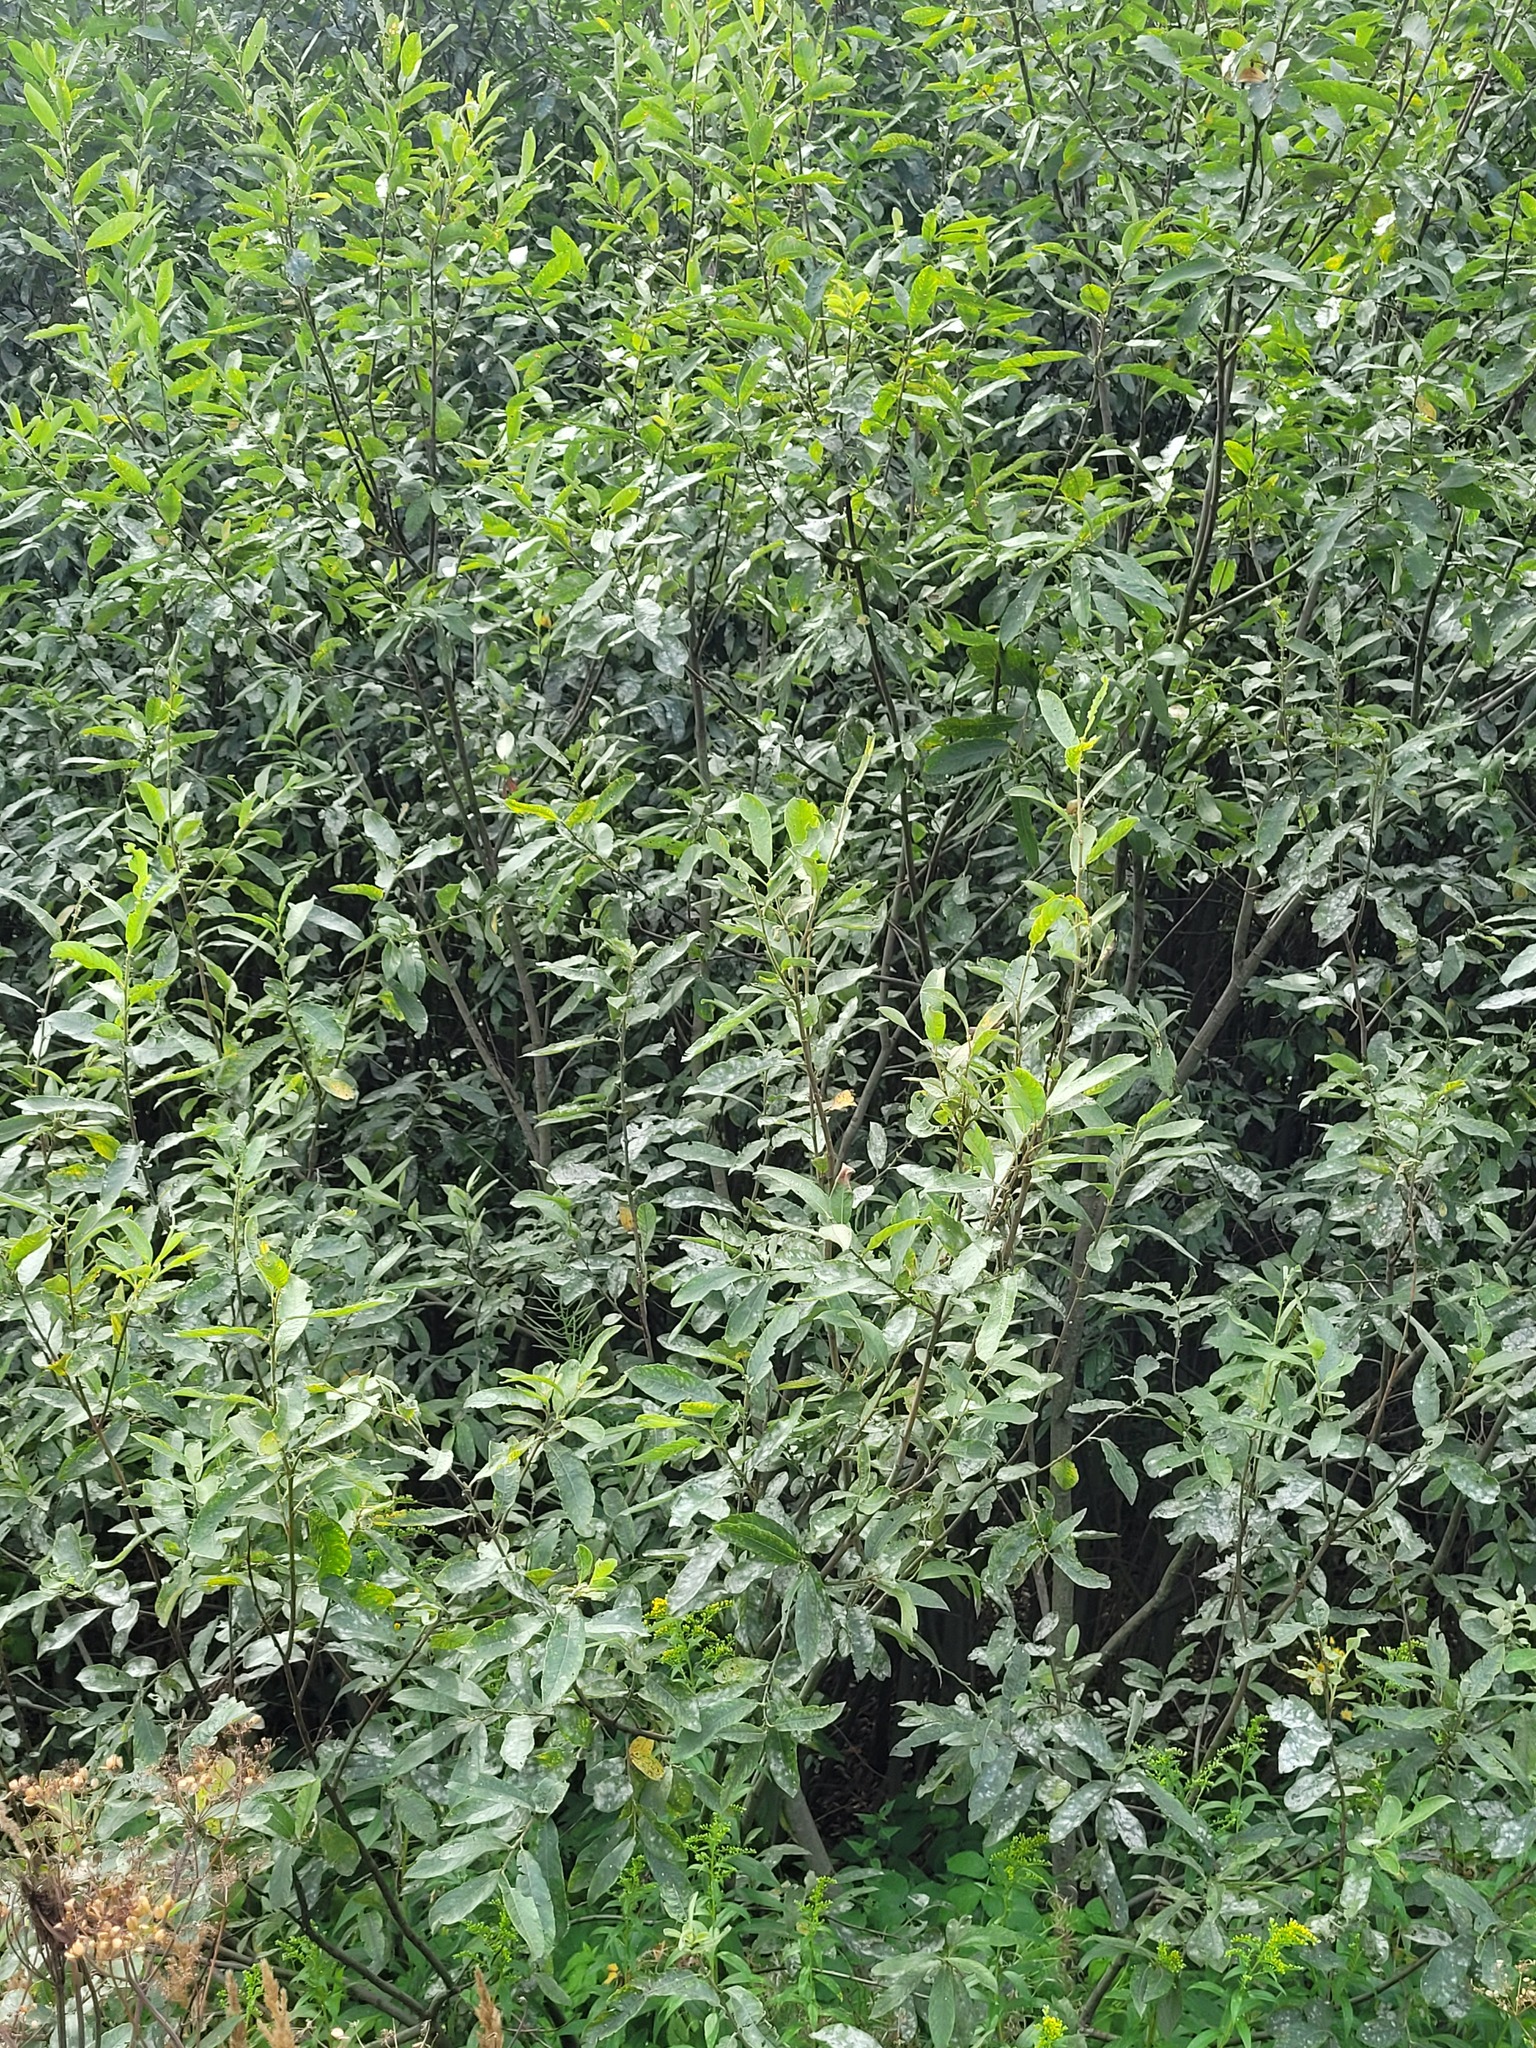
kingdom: Plantae
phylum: Tracheophyta
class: Magnoliopsida
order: Malpighiales
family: Salicaceae
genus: Salix
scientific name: Salix cinerea
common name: Common sallow
